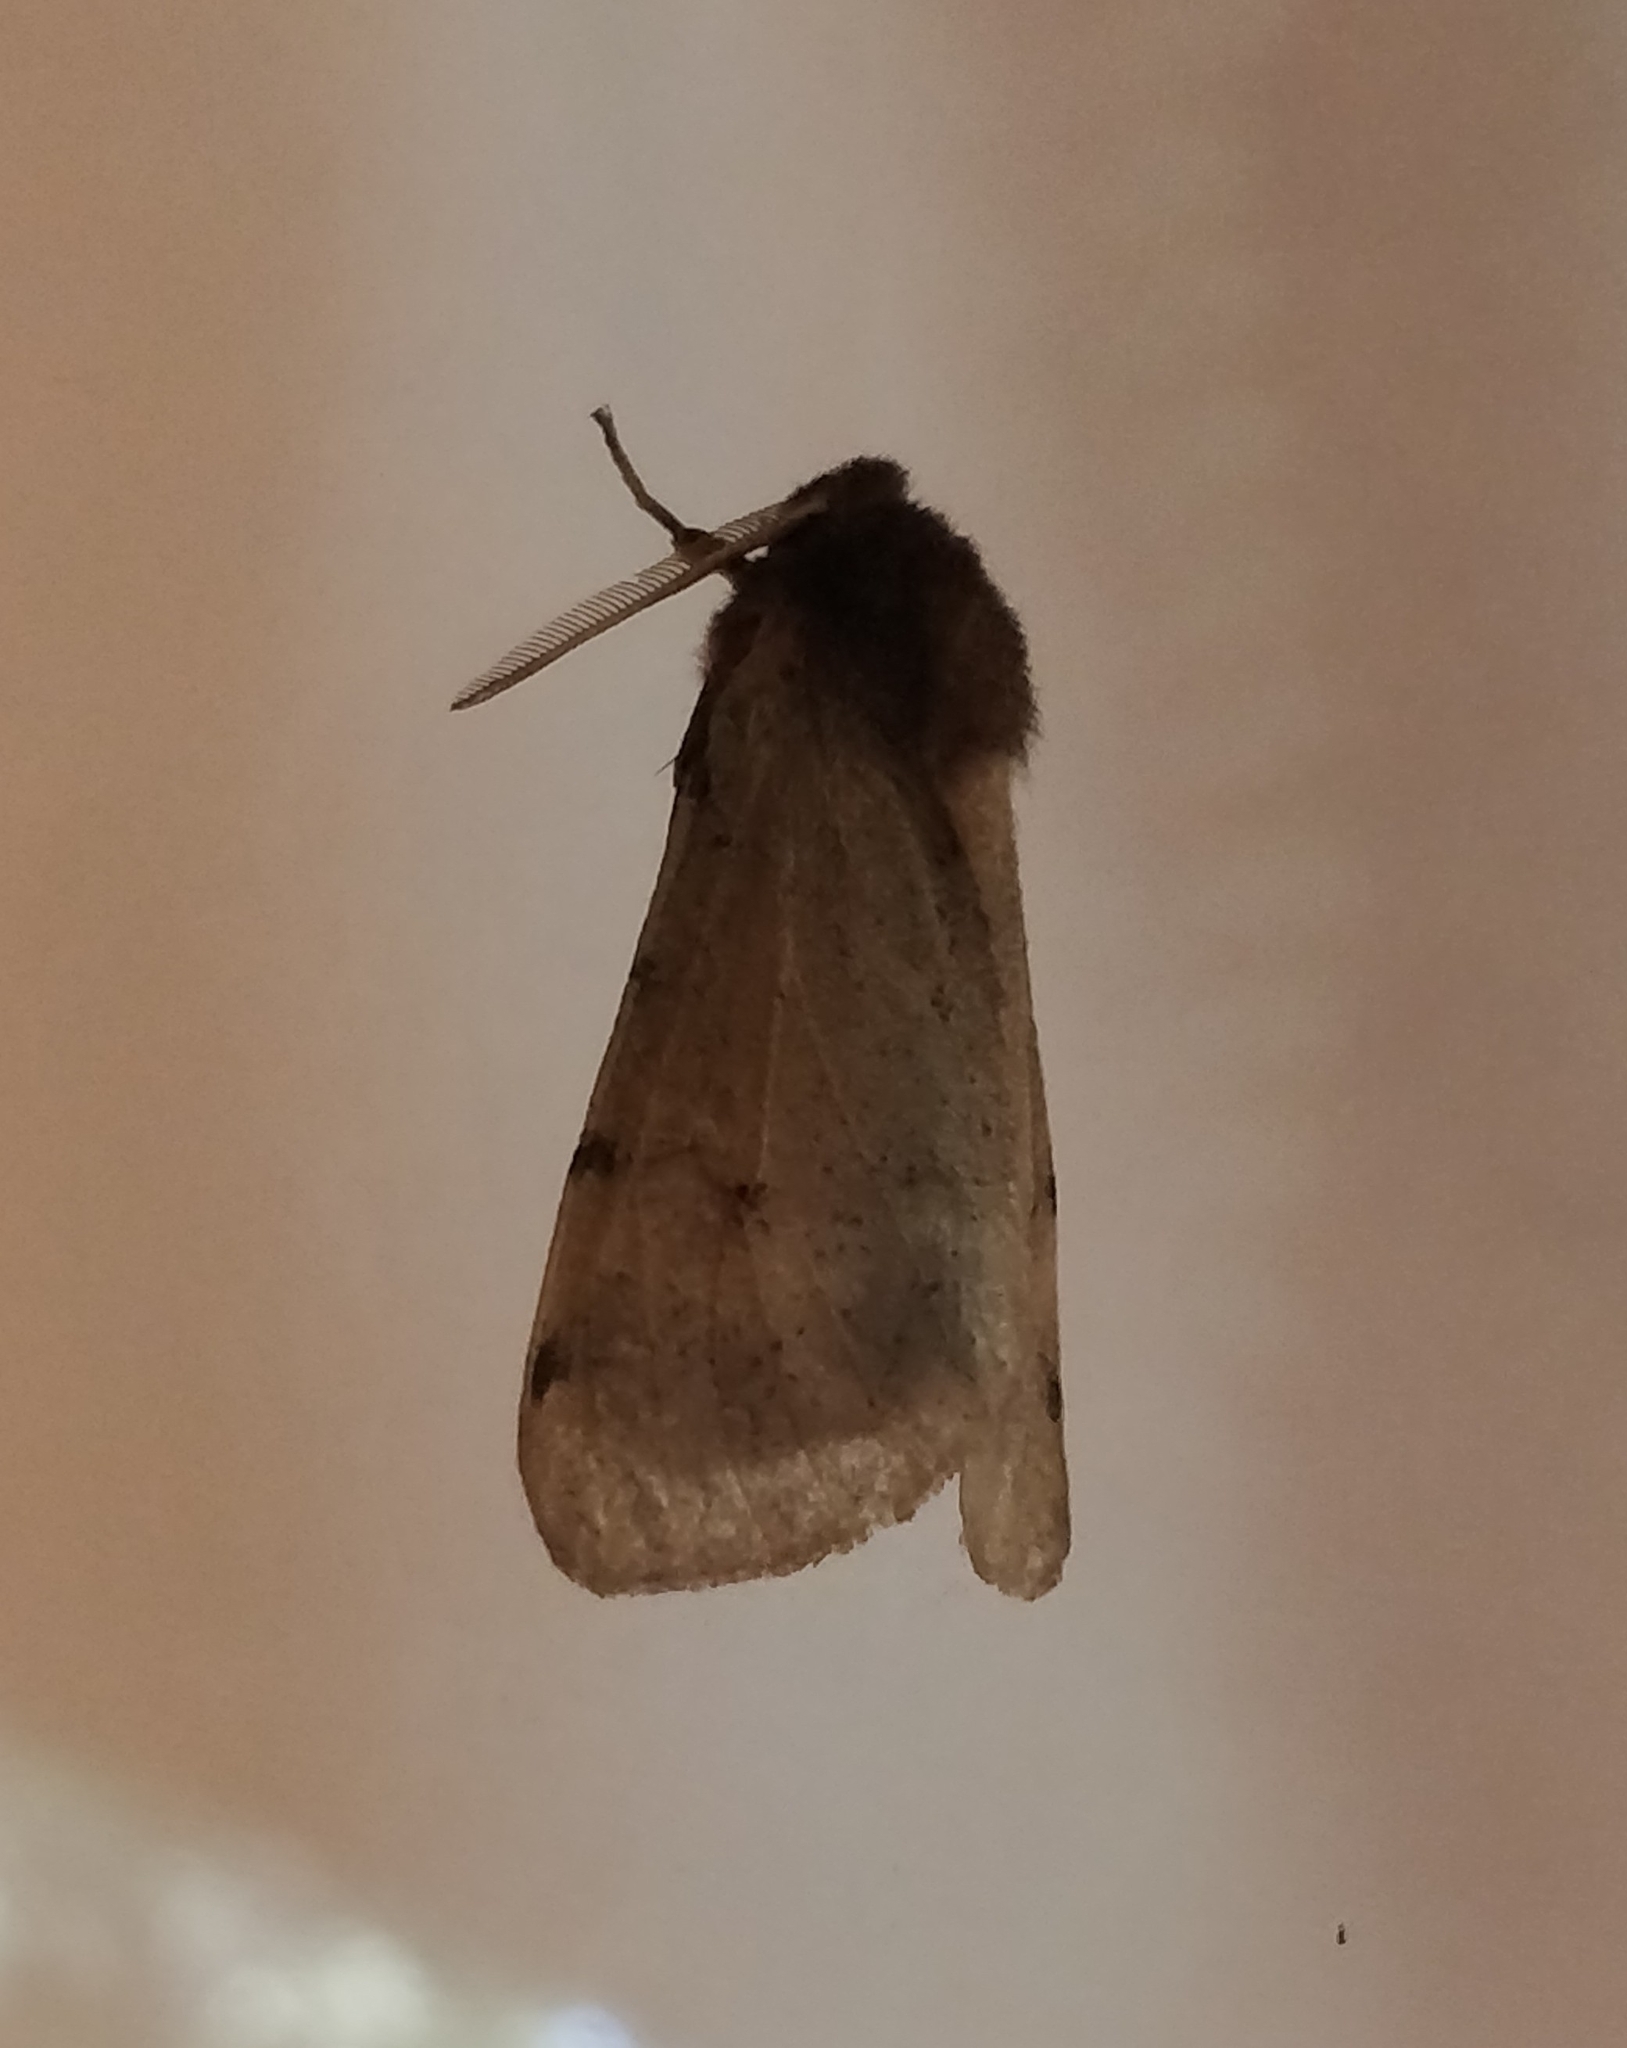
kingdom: Animalia
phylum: Arthropoda
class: Insecta
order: Lepidoptera
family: Erebidae
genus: Canararctia
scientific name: Canararctia rufescens
